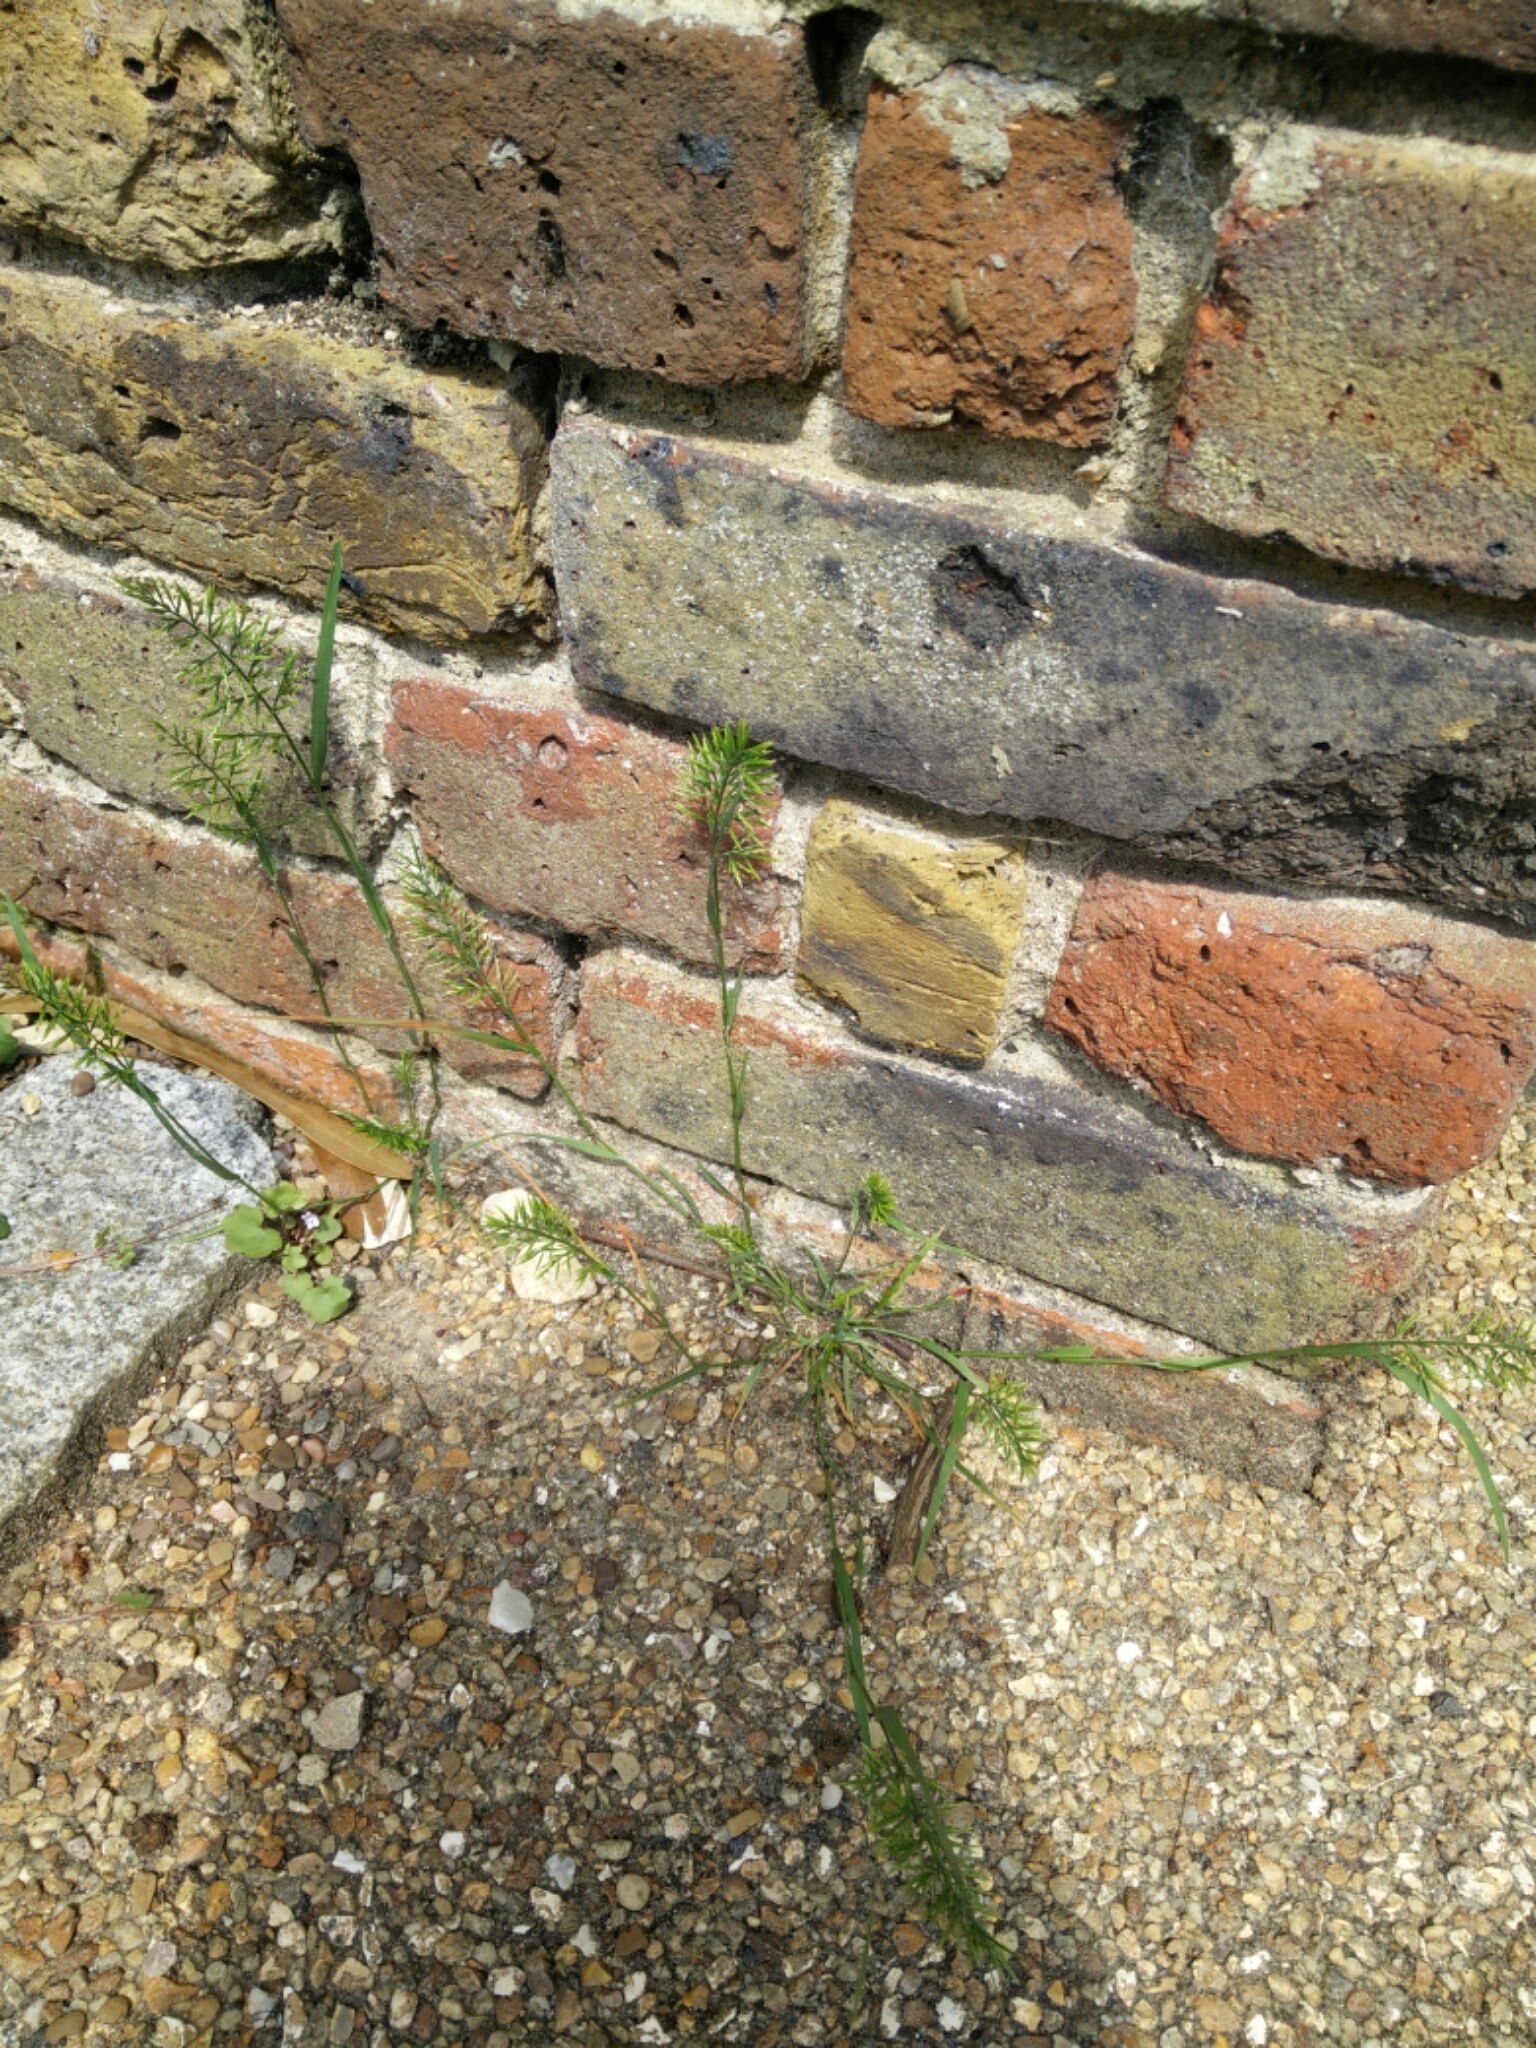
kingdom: Plantae
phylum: Tracheophyta
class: Liliopsida
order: Poales
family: Poaceae
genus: Catapodium
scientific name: Catapodium rigidum
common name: Fern-grass
